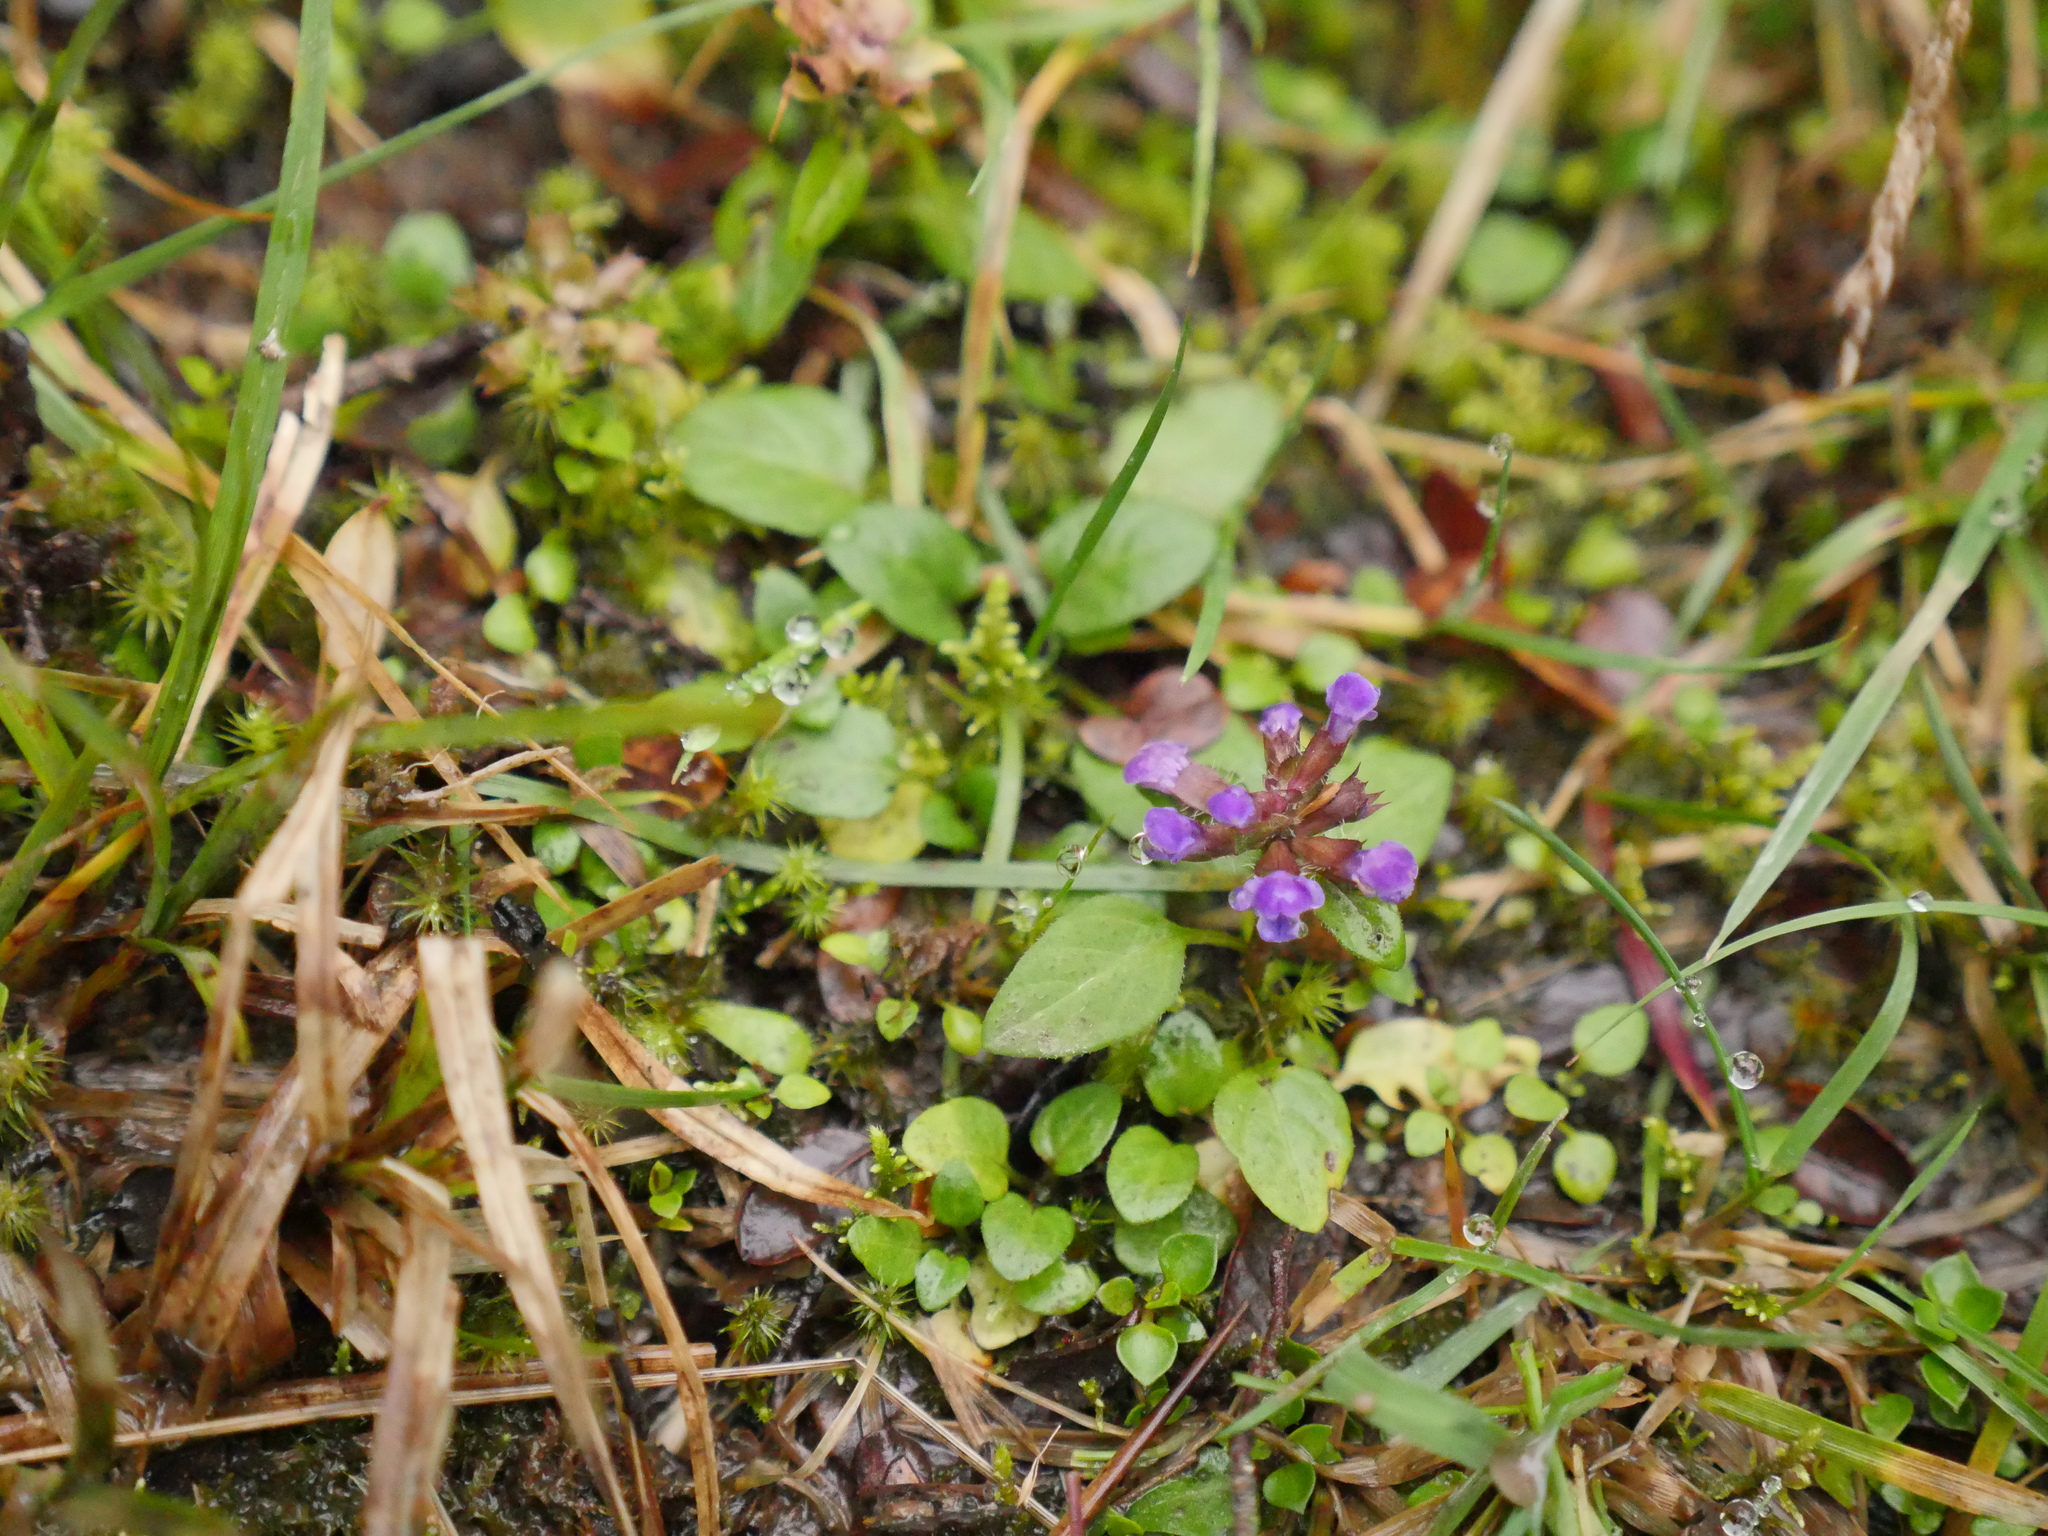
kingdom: Plantae
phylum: Tracheophyta
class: Magnoliopsida
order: Lamiales
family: Lamiaceae
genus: Prunella
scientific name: Prunella vulgaris
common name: Heal-all
